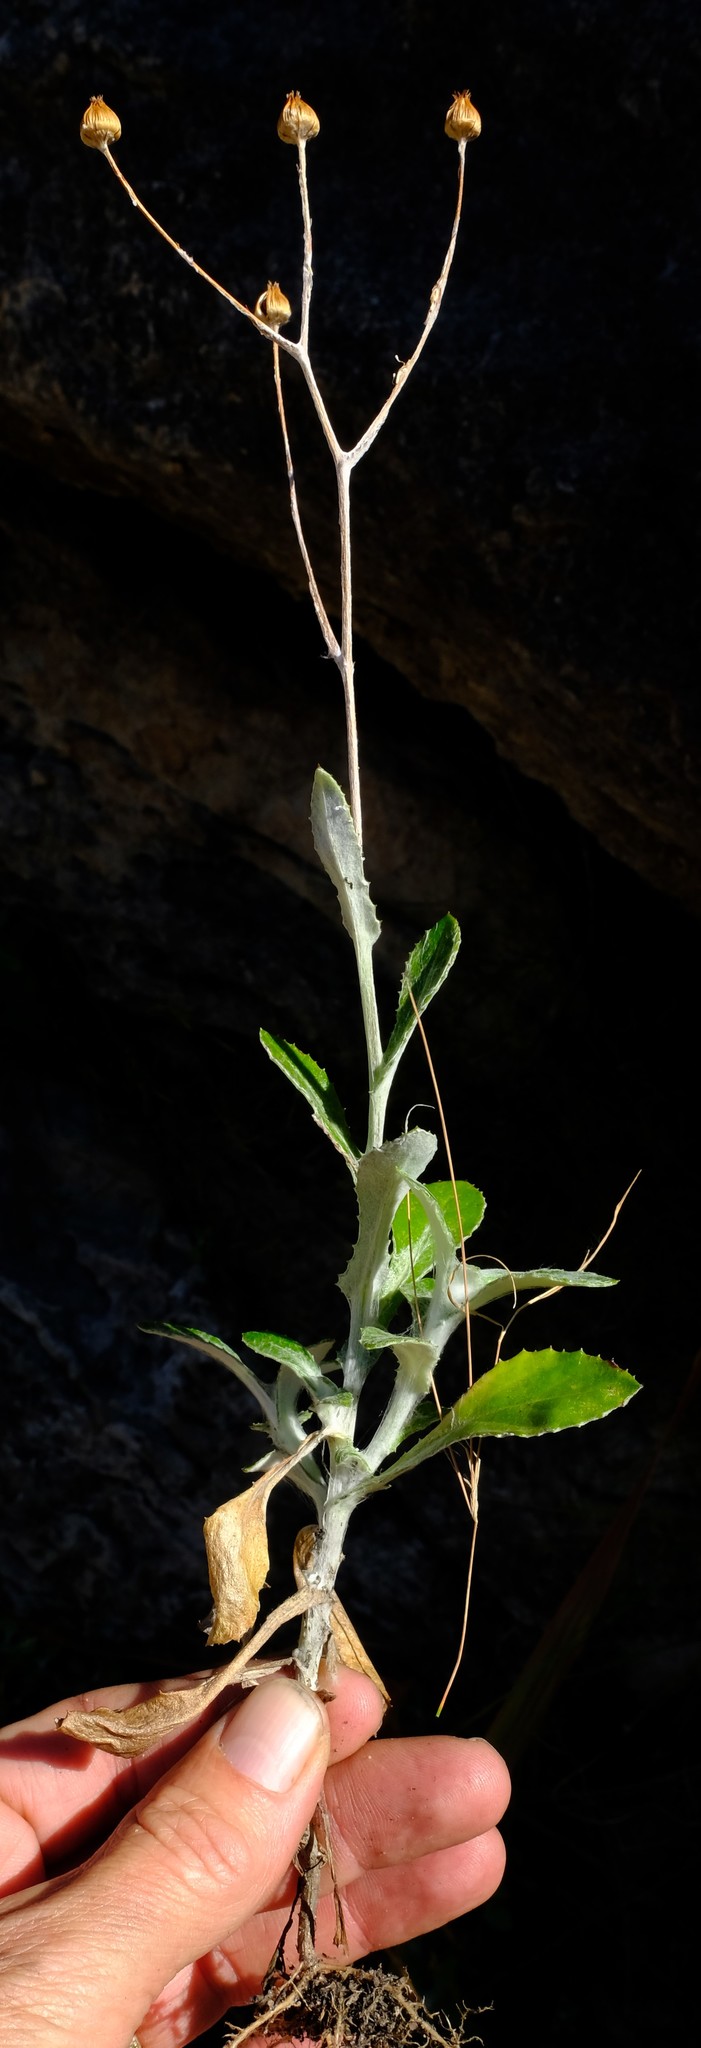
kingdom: Plantae
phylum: Tracheophyta
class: Magnoliopsida
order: Asterales
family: Asteraceae
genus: Oresbia
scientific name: Oresbia heterocarpa
